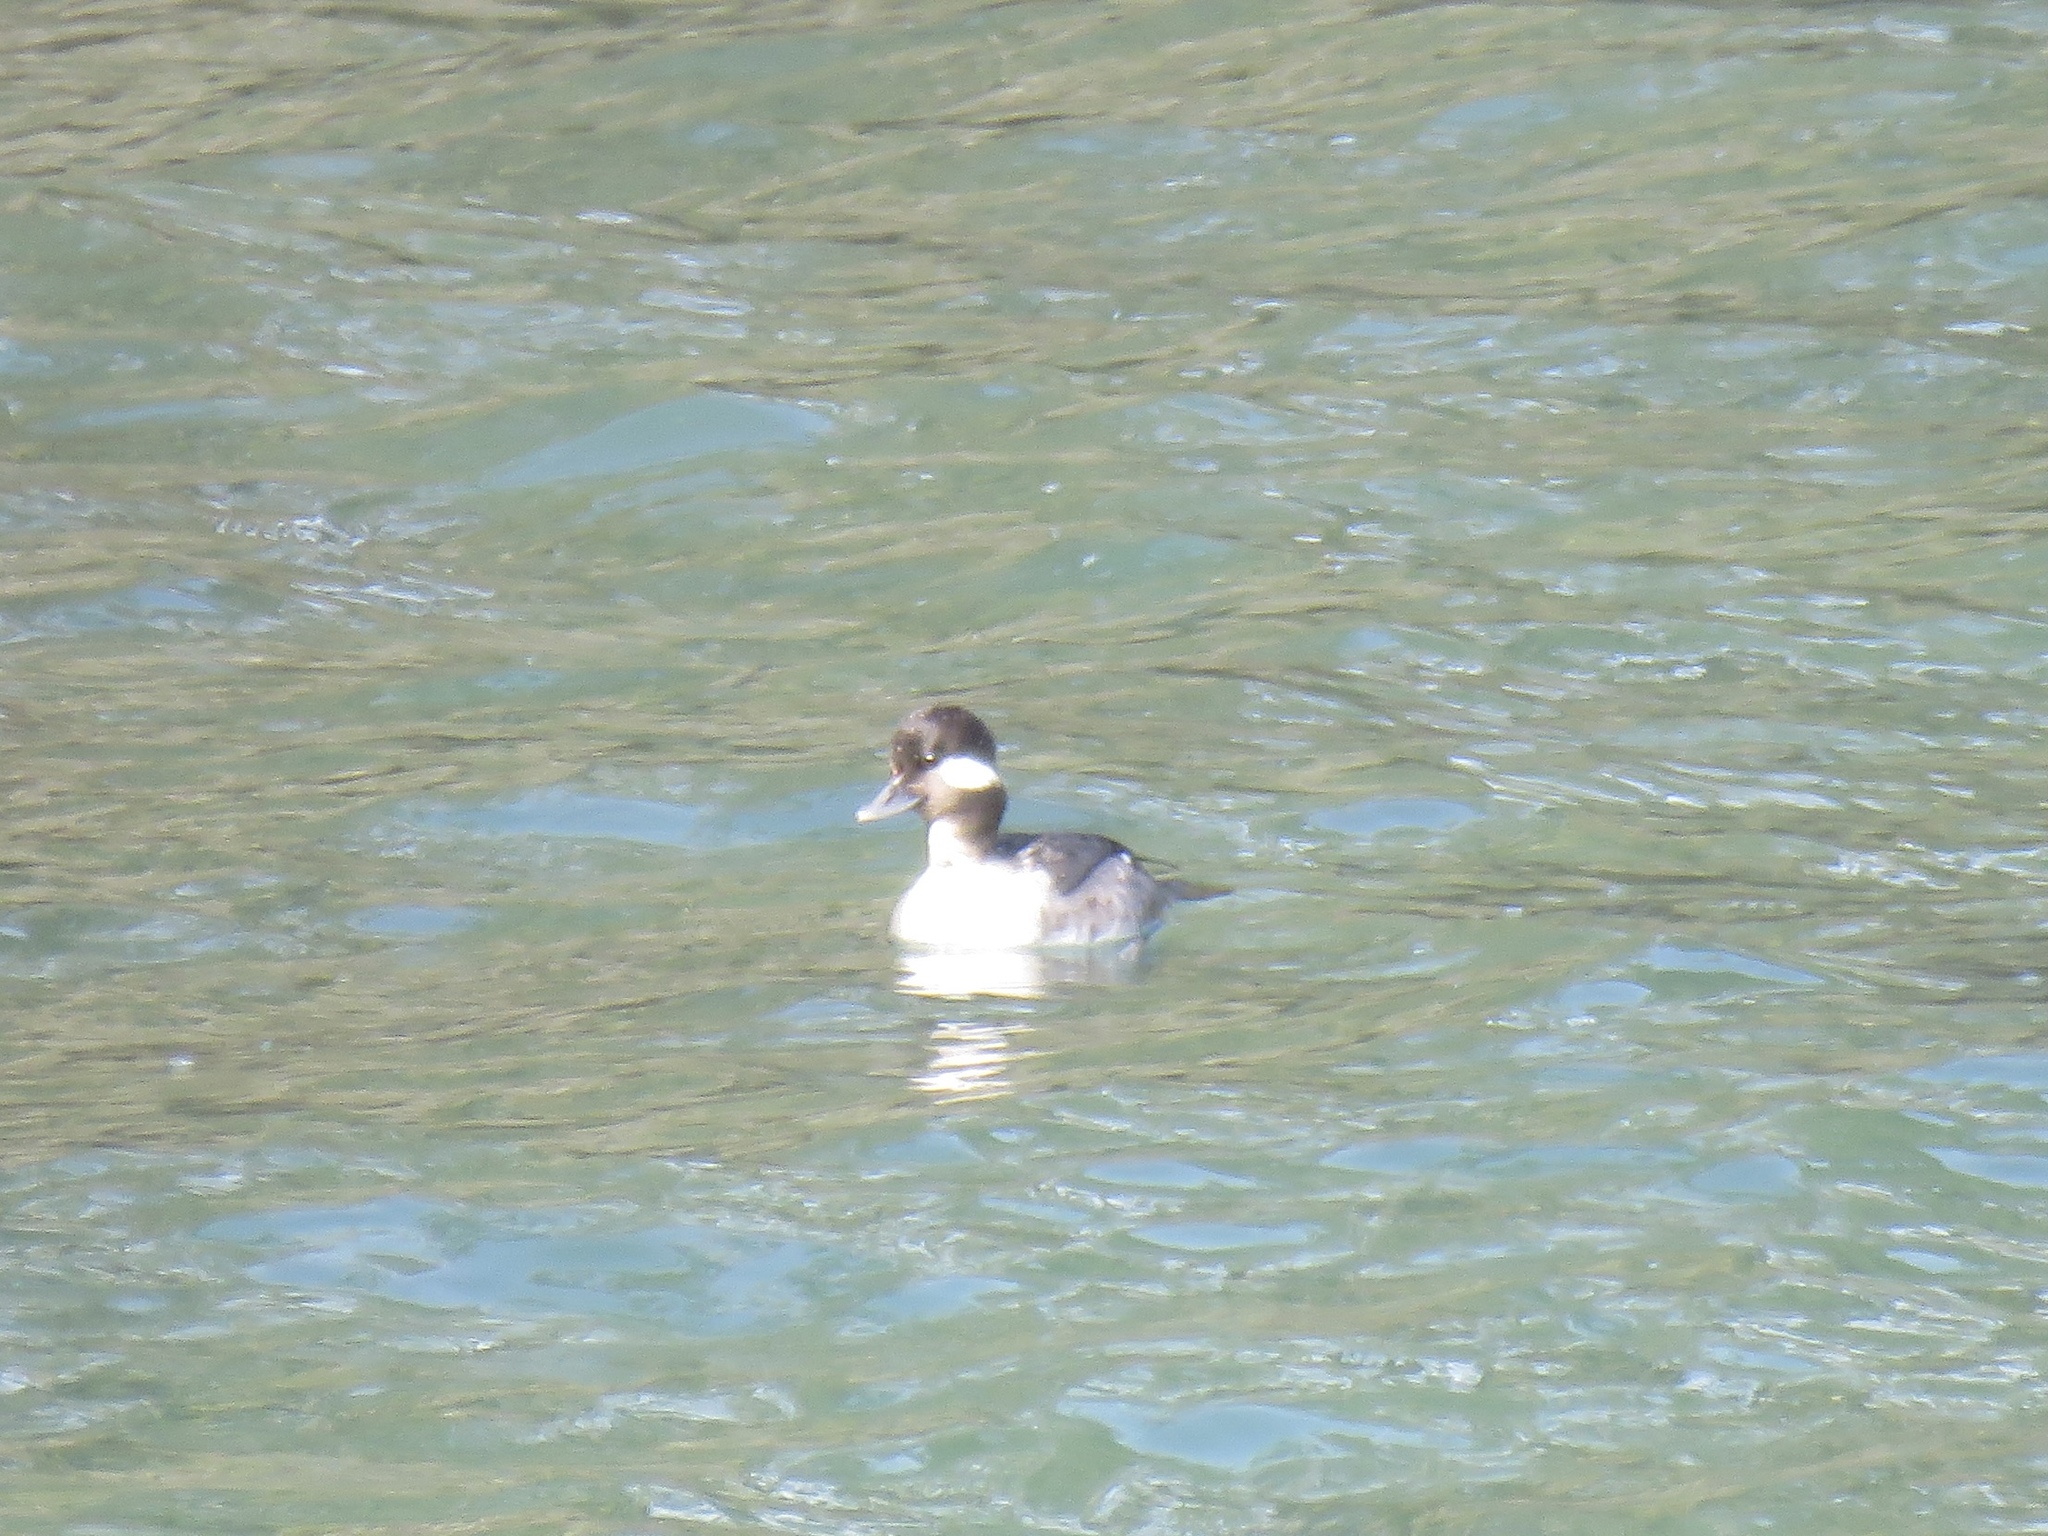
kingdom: Animalia
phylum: Chordata
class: Aves
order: Anseriformes
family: Anatidae
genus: Bucephala
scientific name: Bucephala albeola
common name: Bufflehead
